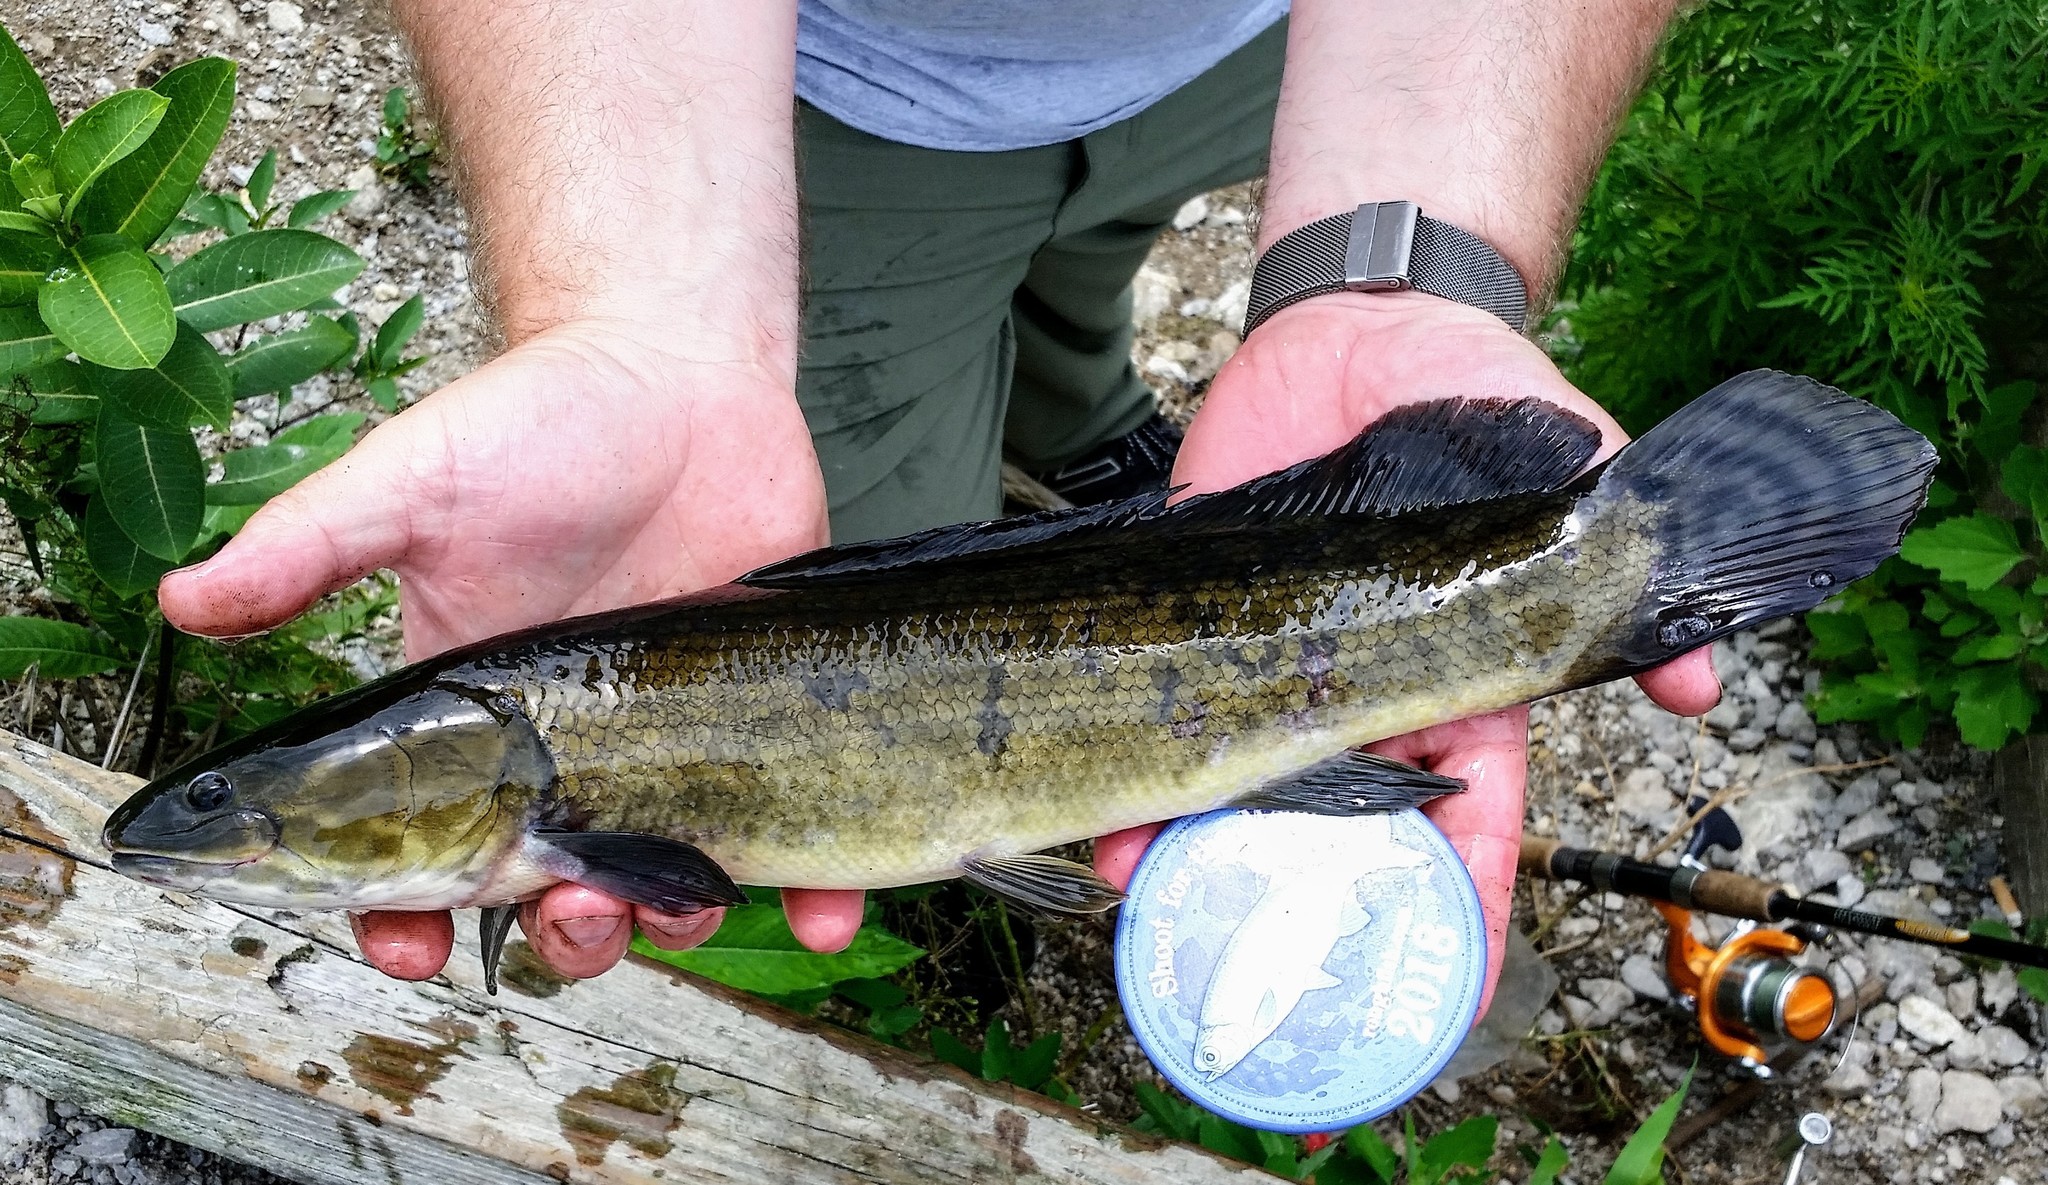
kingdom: Animalia
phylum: Chordata
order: Amiiformes
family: Amiidae
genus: Amia
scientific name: Amia calva
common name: Bowfin
